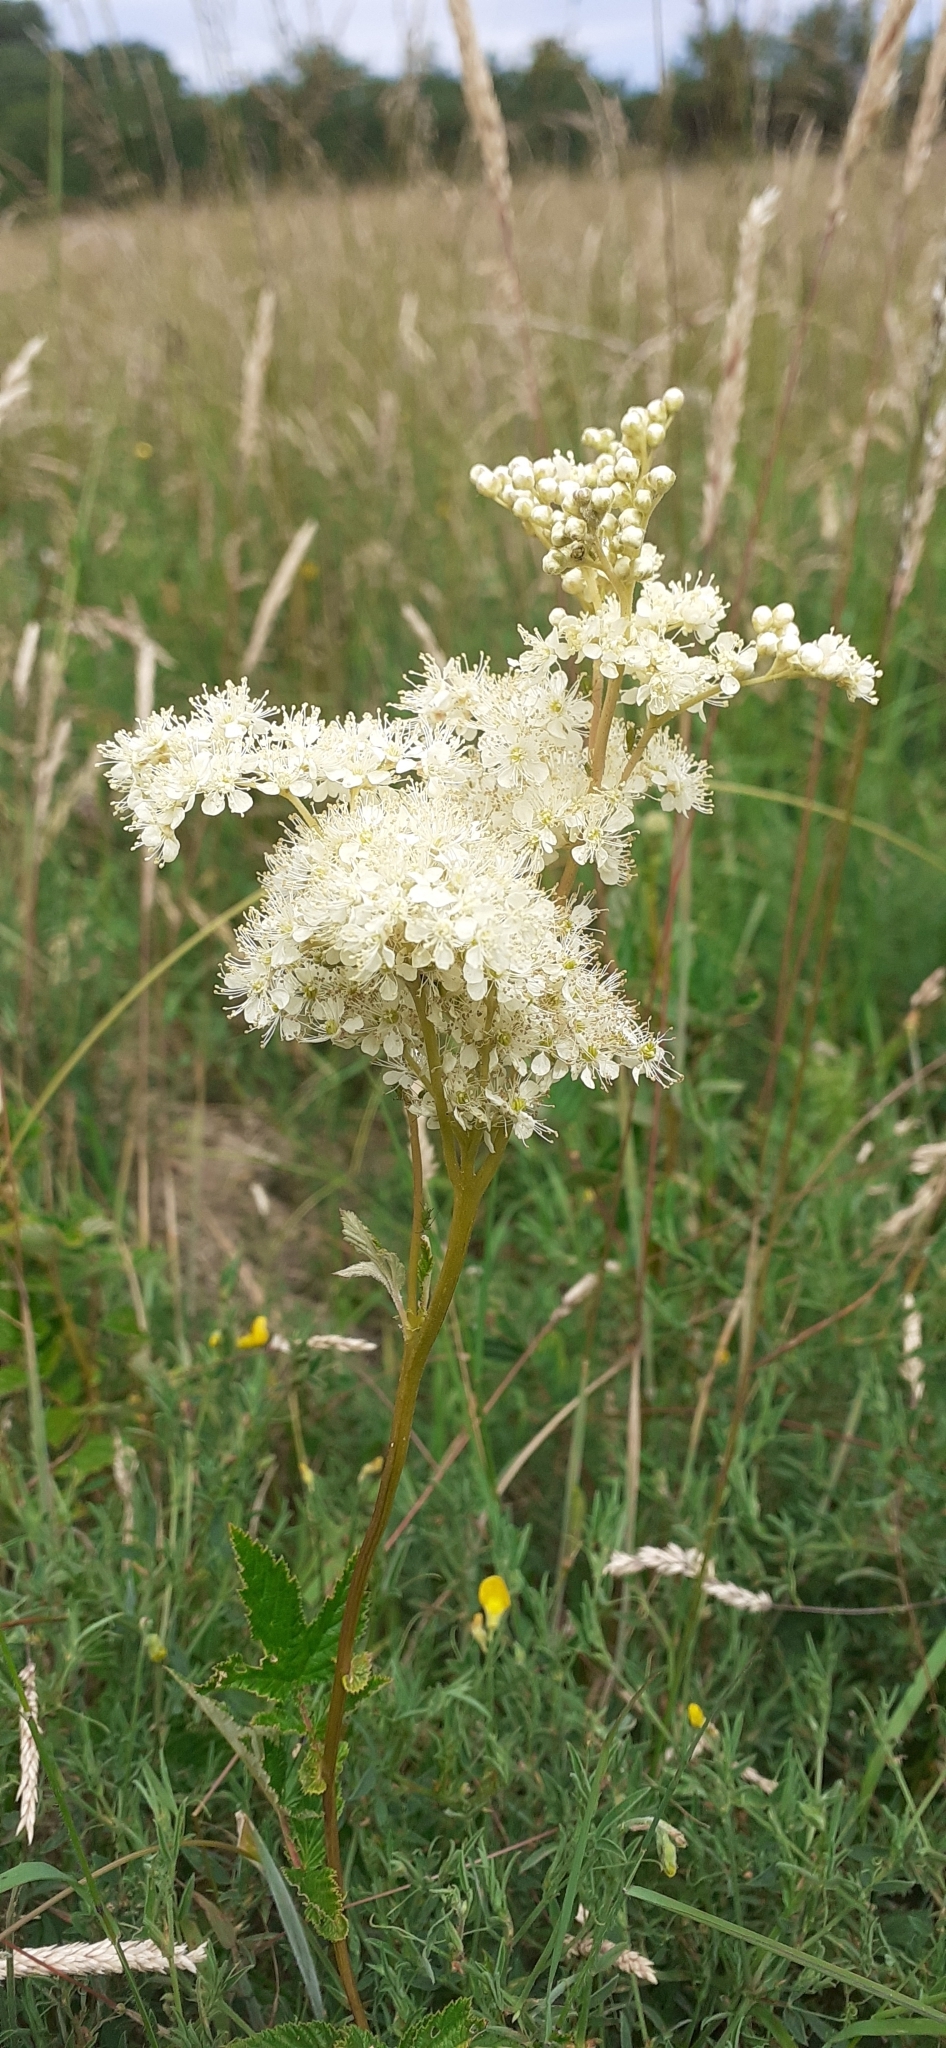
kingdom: Plantae
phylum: Tracheophyta
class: Magnoliopsida
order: Rosales
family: Rosaceae
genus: Filipendula
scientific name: Filipendula ulmaria
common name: Meadowsweet
